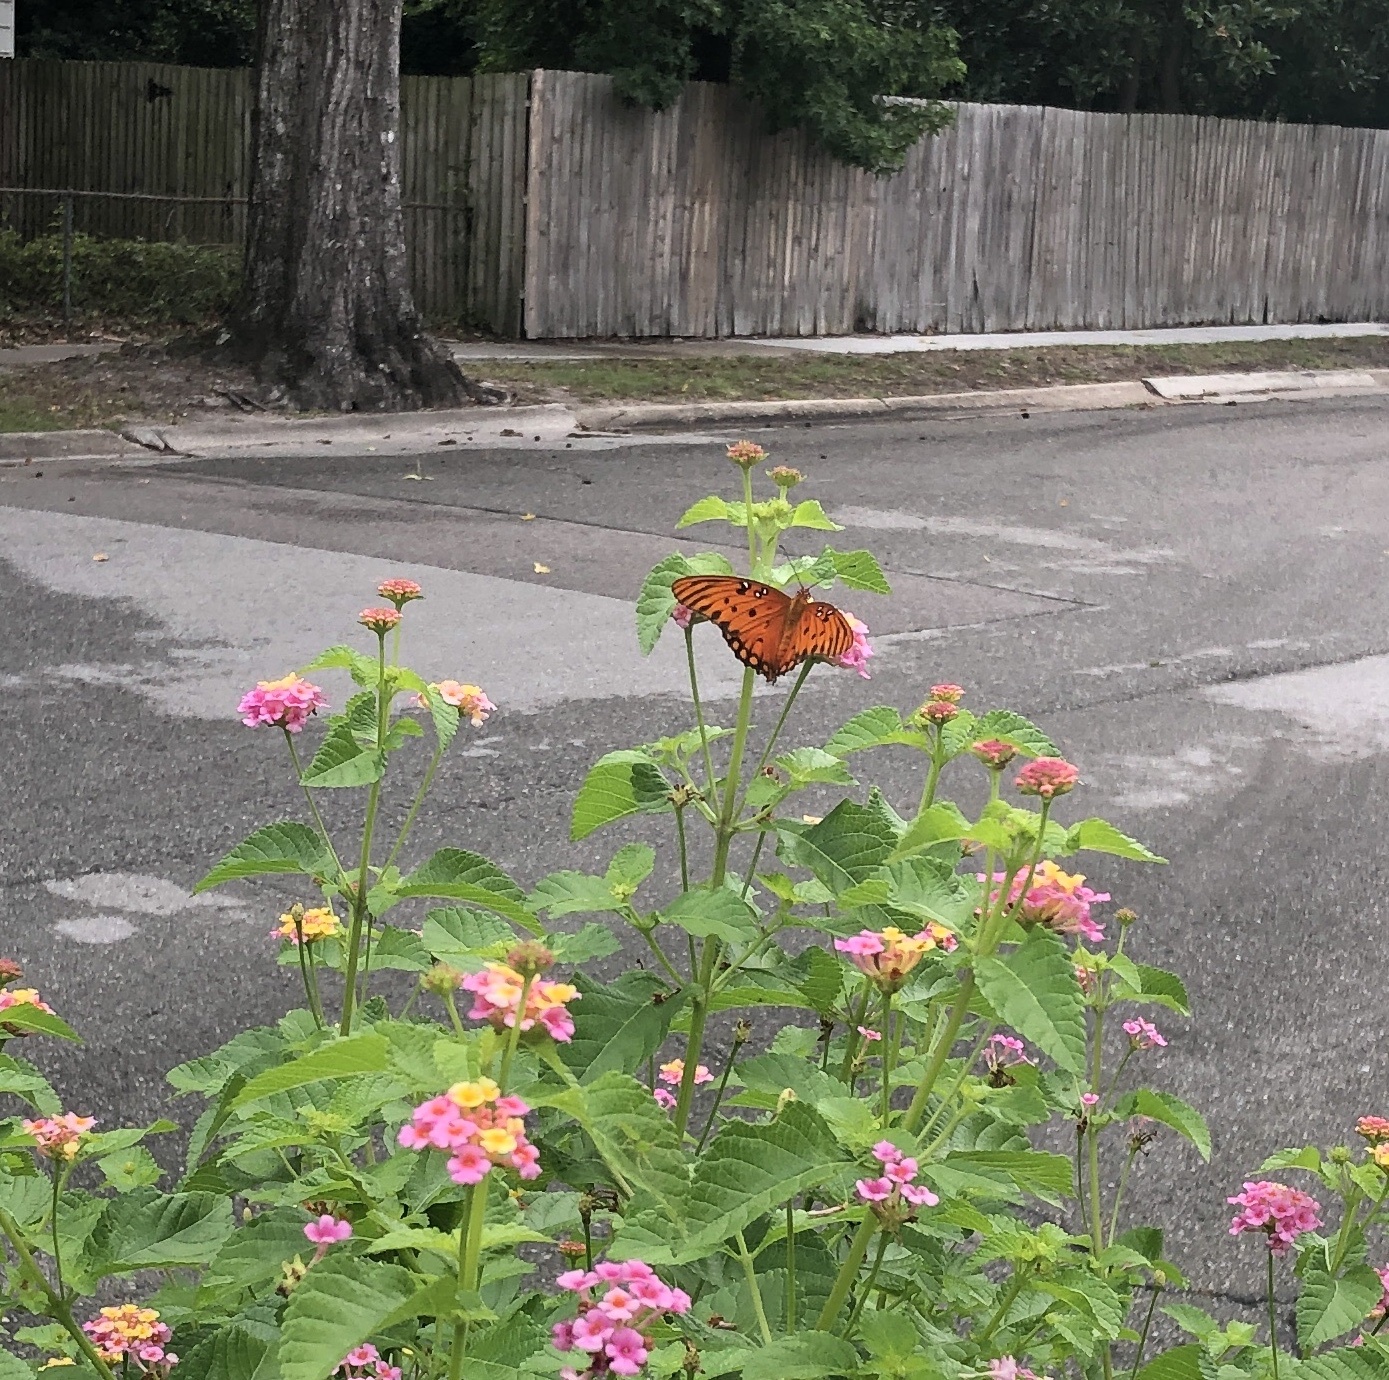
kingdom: Animalia
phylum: Arthropoda
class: Insecta
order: Lepidoptera
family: Nymphalidae
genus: Dione
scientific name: Dione vanillae
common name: Gulf fritillary
